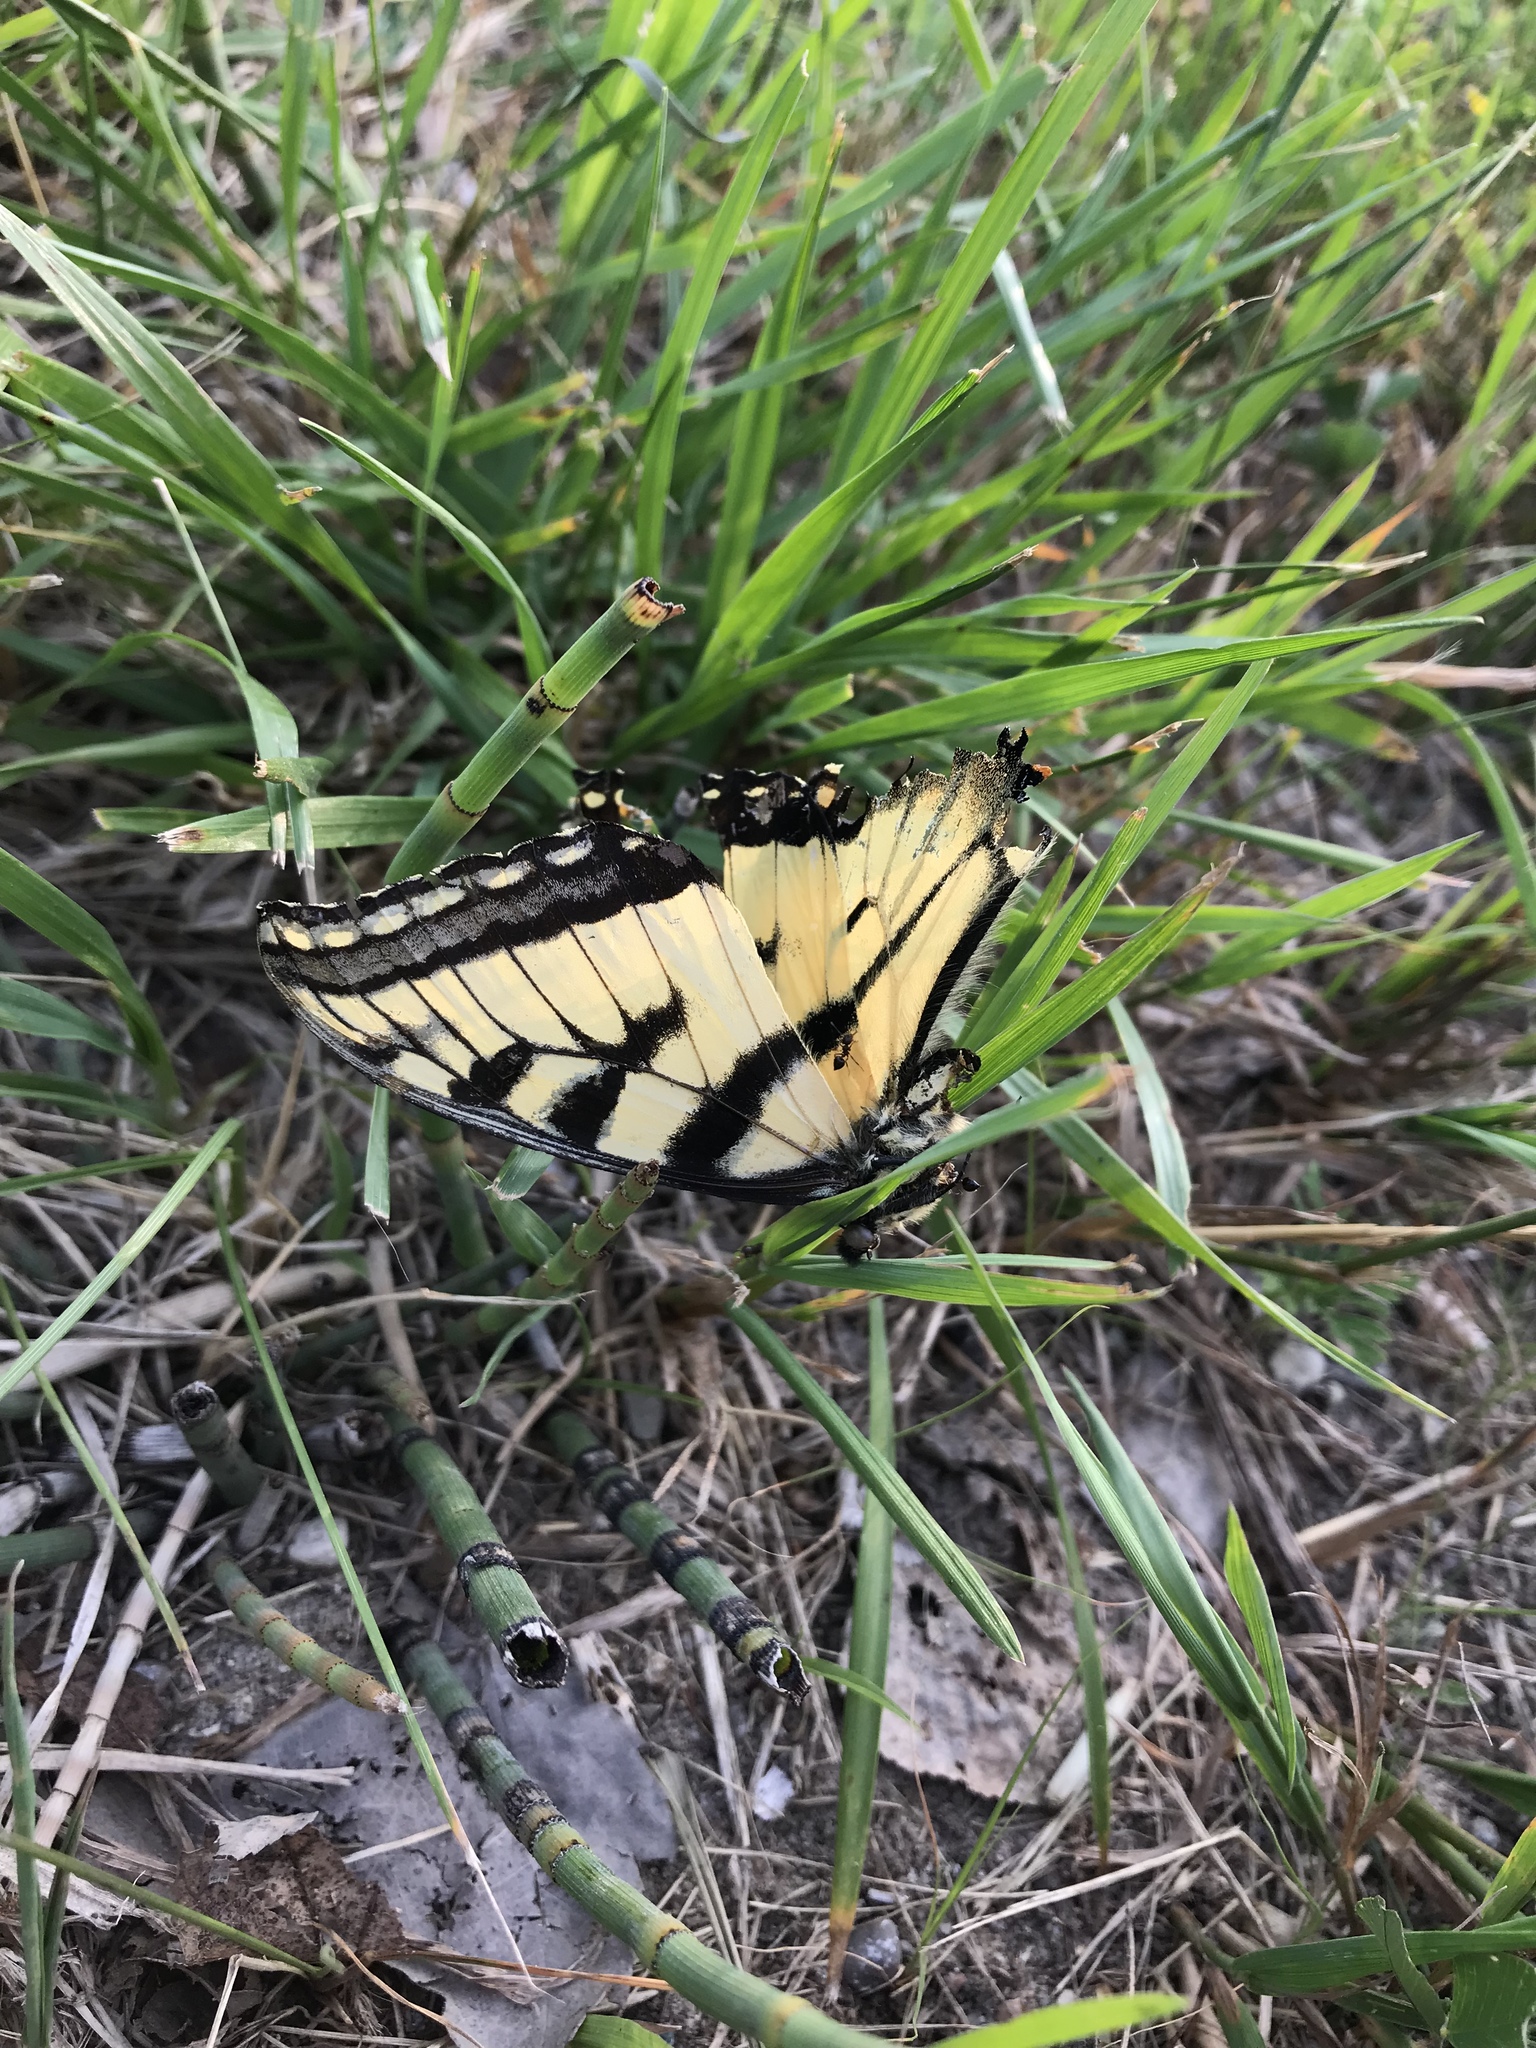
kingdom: Animalia
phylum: Arthropoda
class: Insecta
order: Lepidoptera
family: Papilionidae
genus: Papilio
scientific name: Papilio
